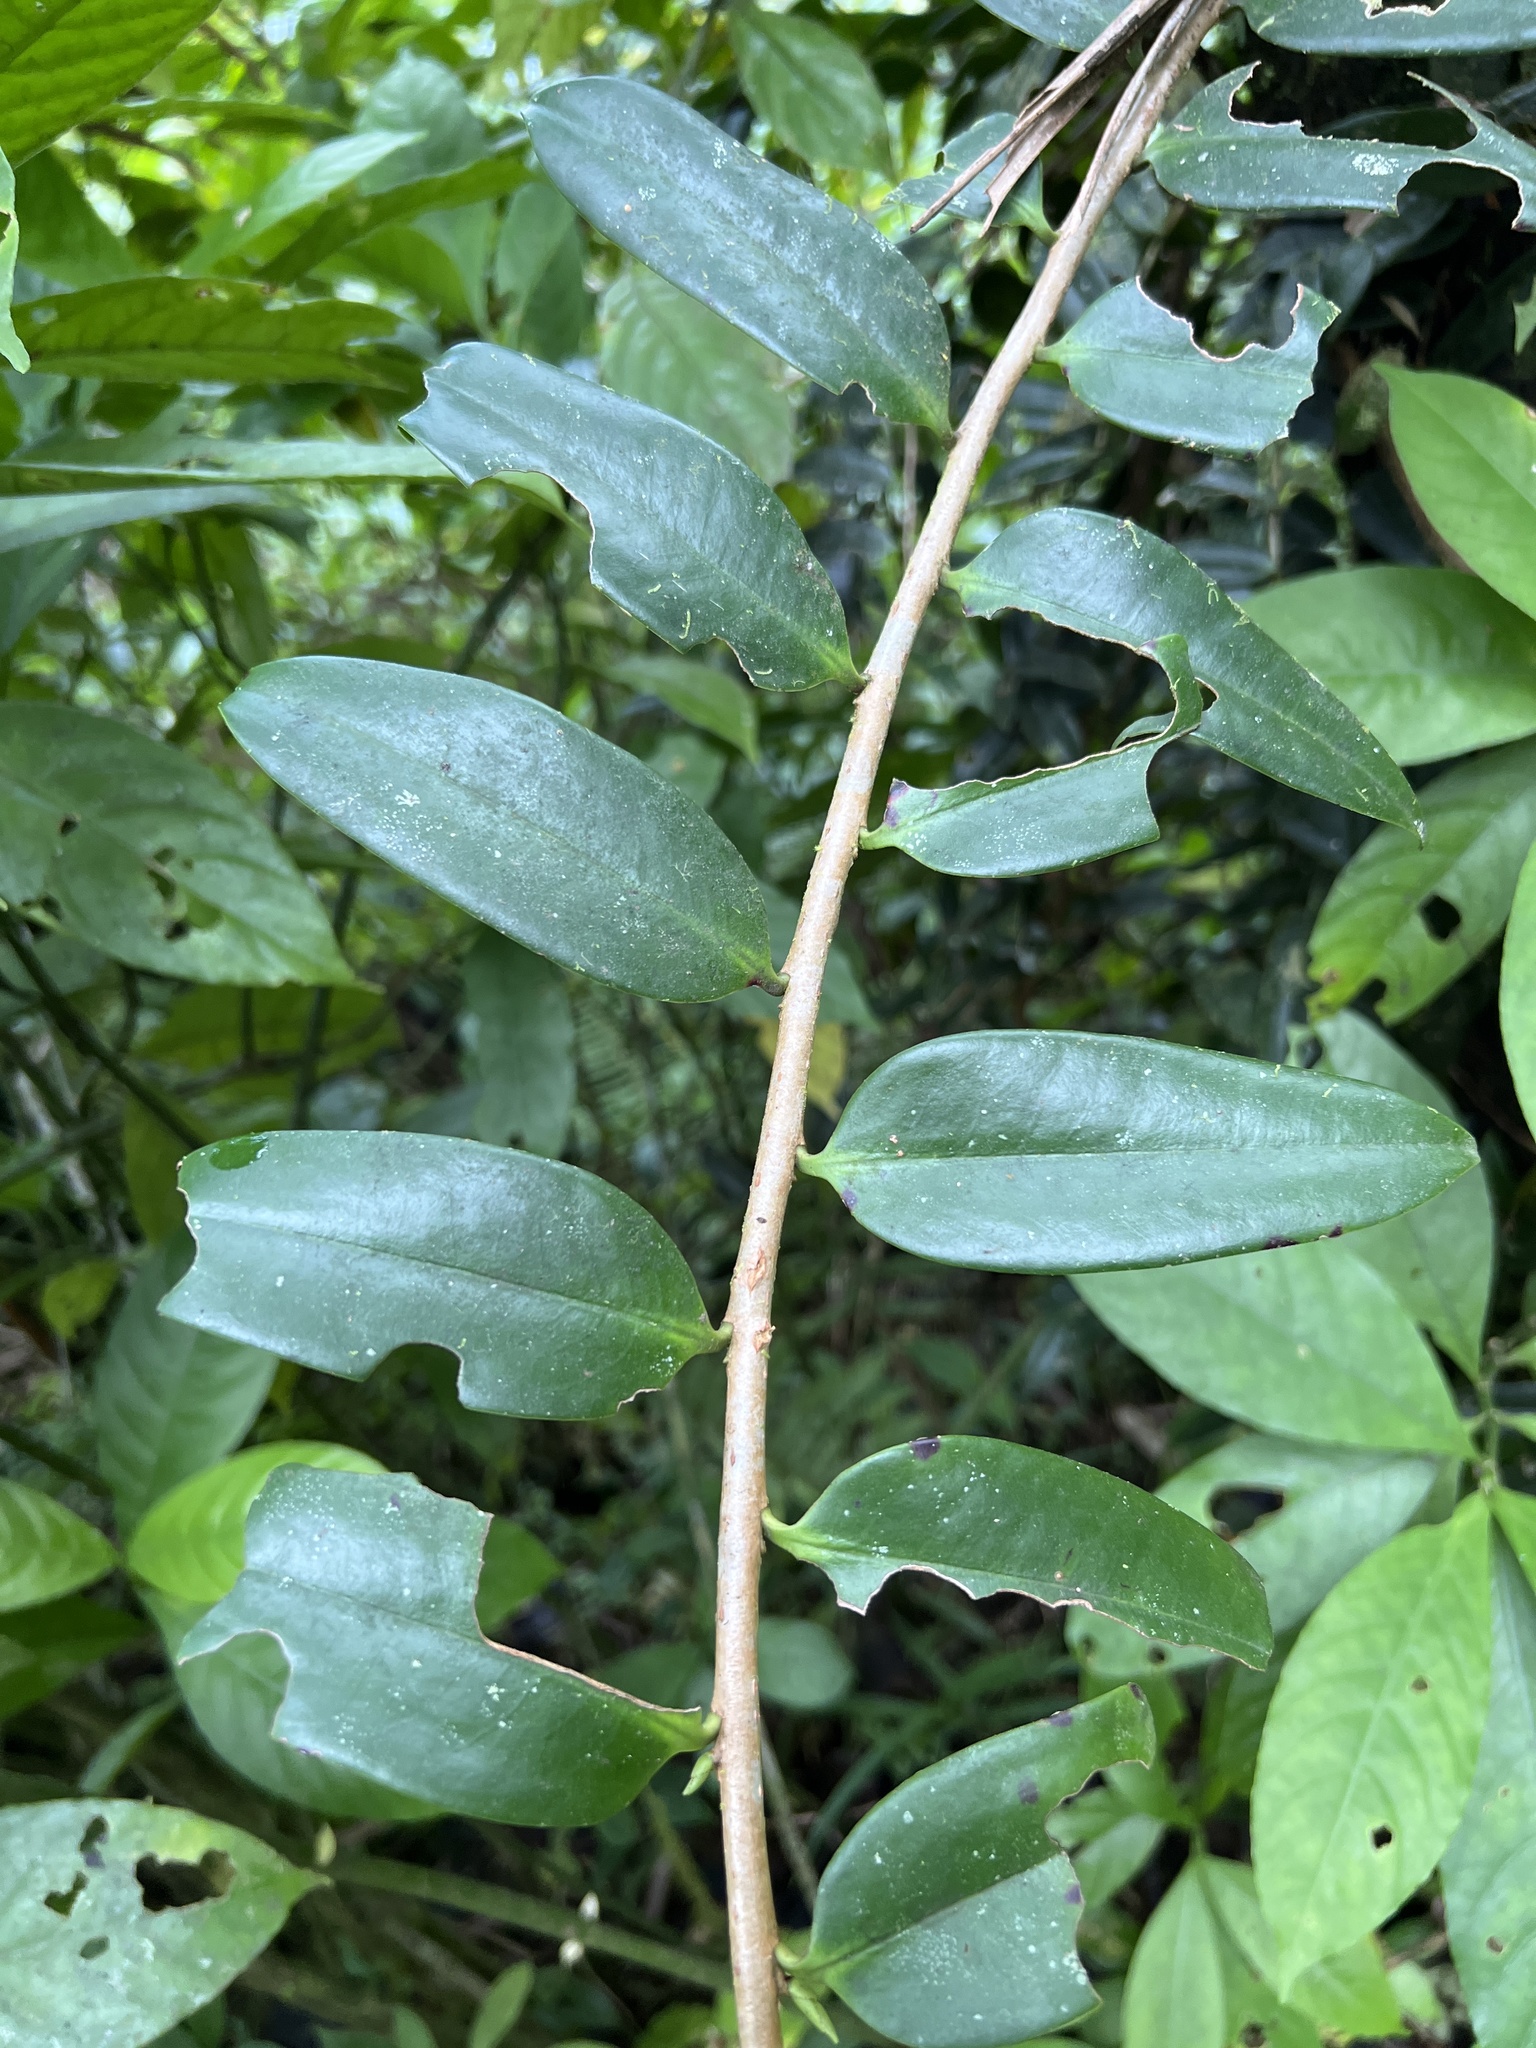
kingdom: Plantae
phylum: Tracheophyta
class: Magnoliopsida
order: Ericales
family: Marcgraviaceae
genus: Marcgravia
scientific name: Marcgravia sintenisii
